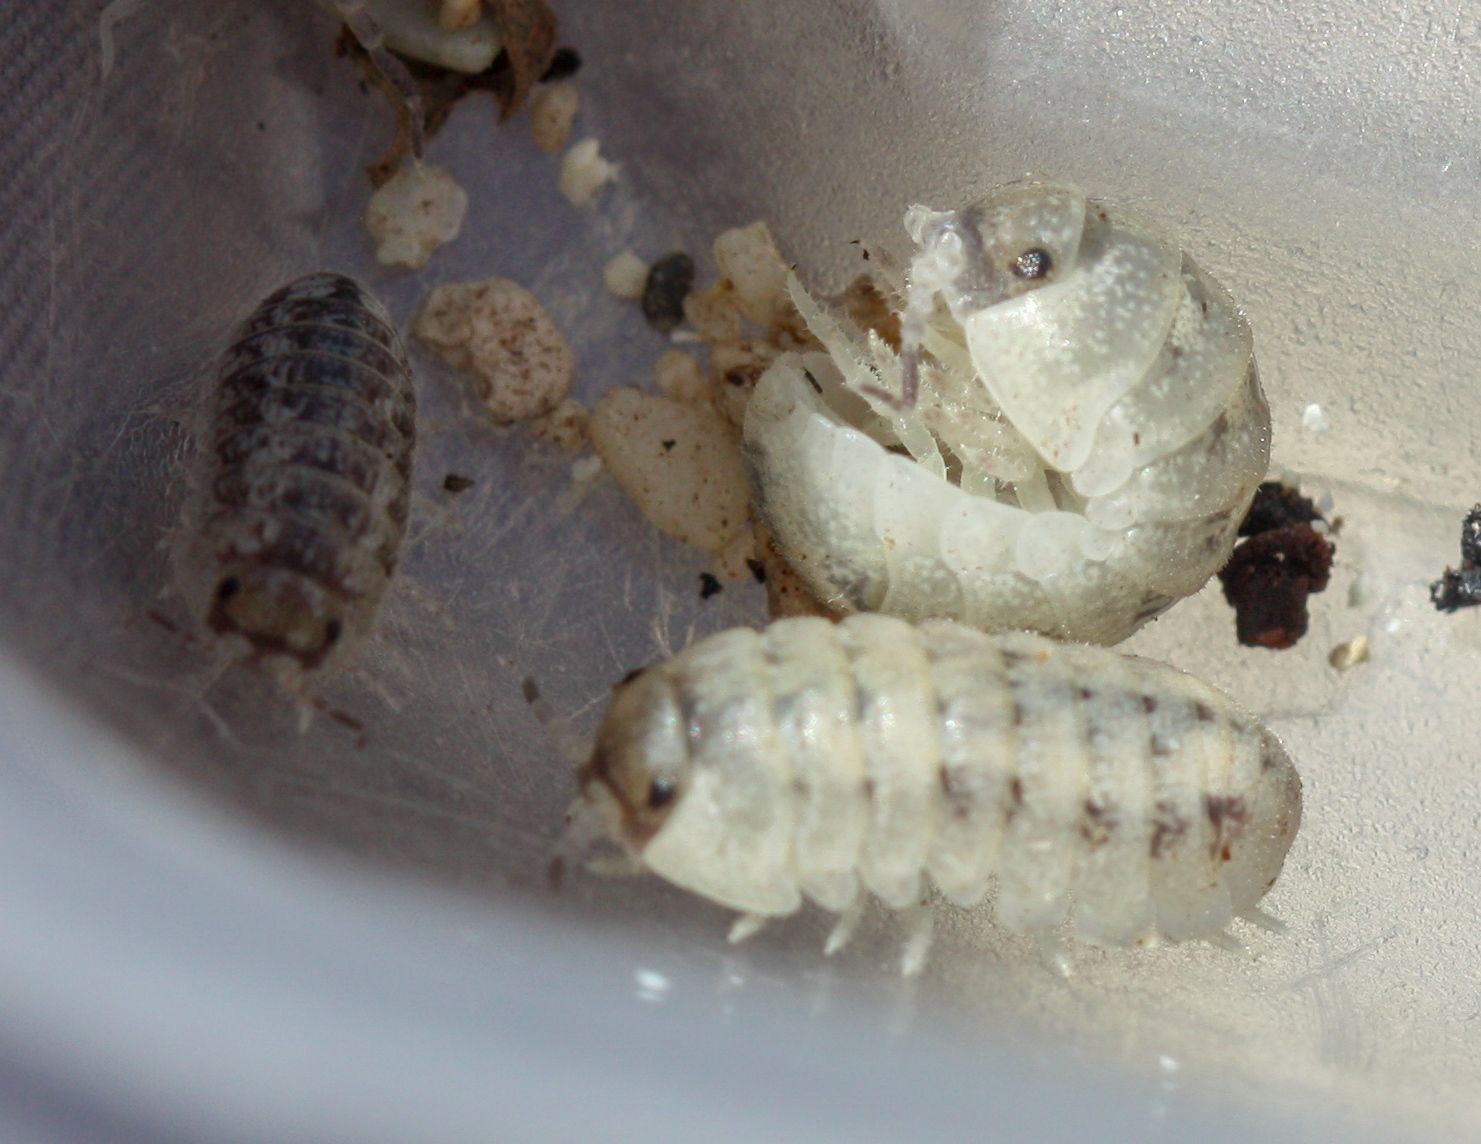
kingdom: Animalia
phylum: Arthropoda
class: Malacostraca
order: Isopoda
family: Tylidae
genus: Tylos
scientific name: Tylos niveus
